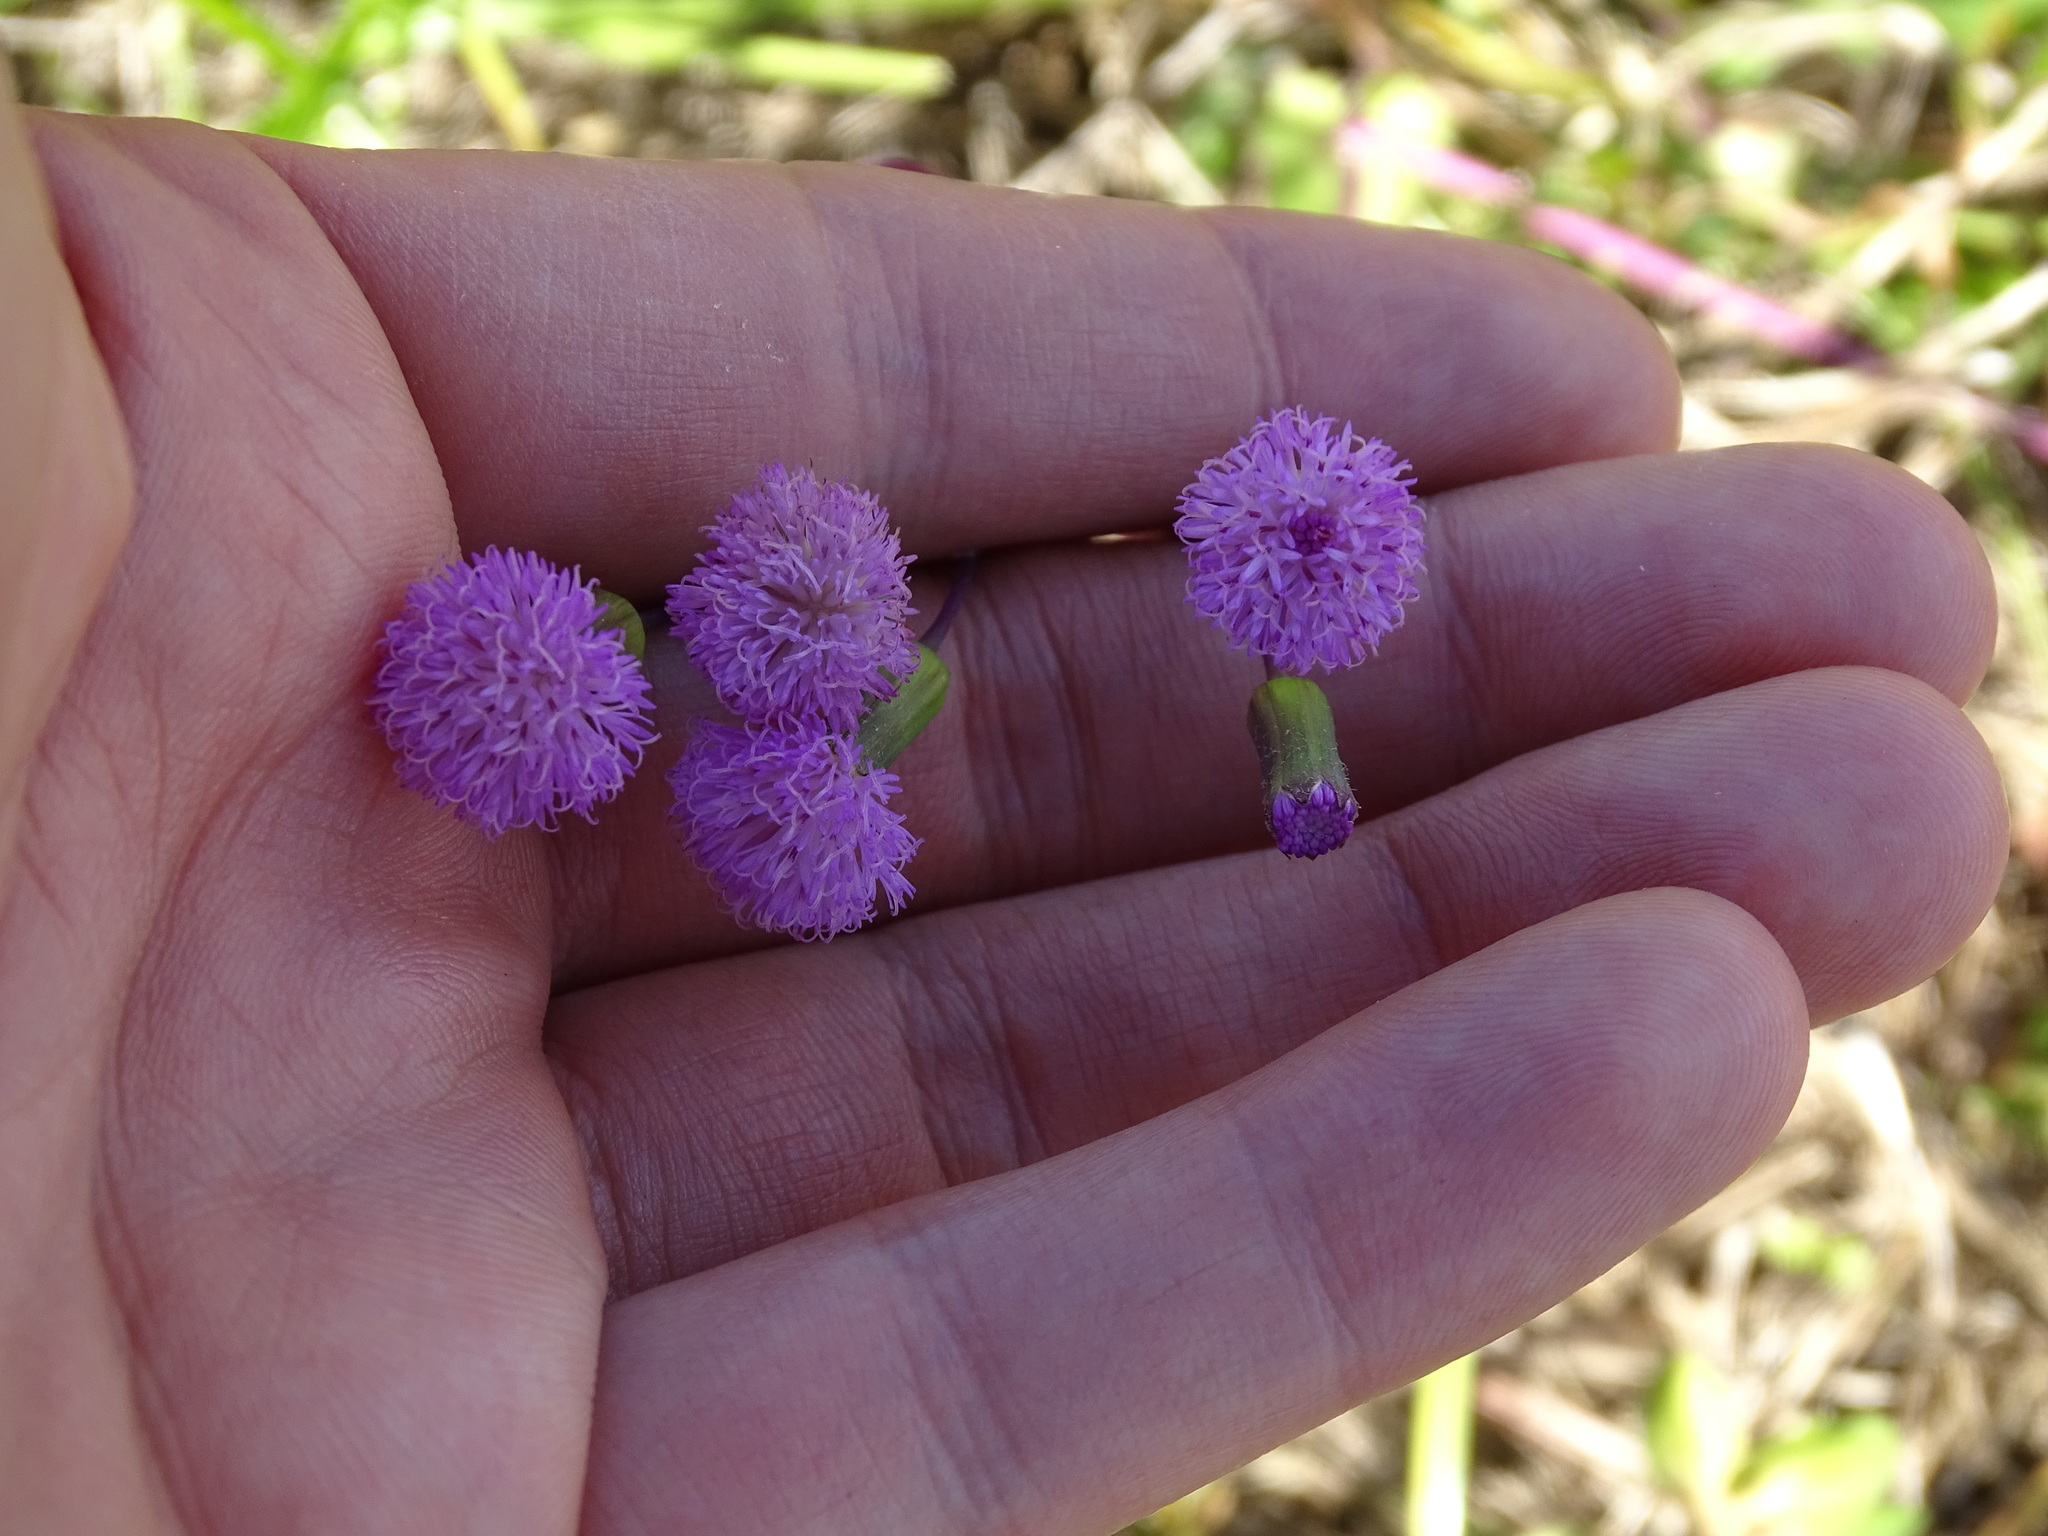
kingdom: Plantae
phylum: Tracheophyta
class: Magnoliopsida
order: Asterales
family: Asteraceae
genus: Emilia
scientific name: Emilia sonchifolia
